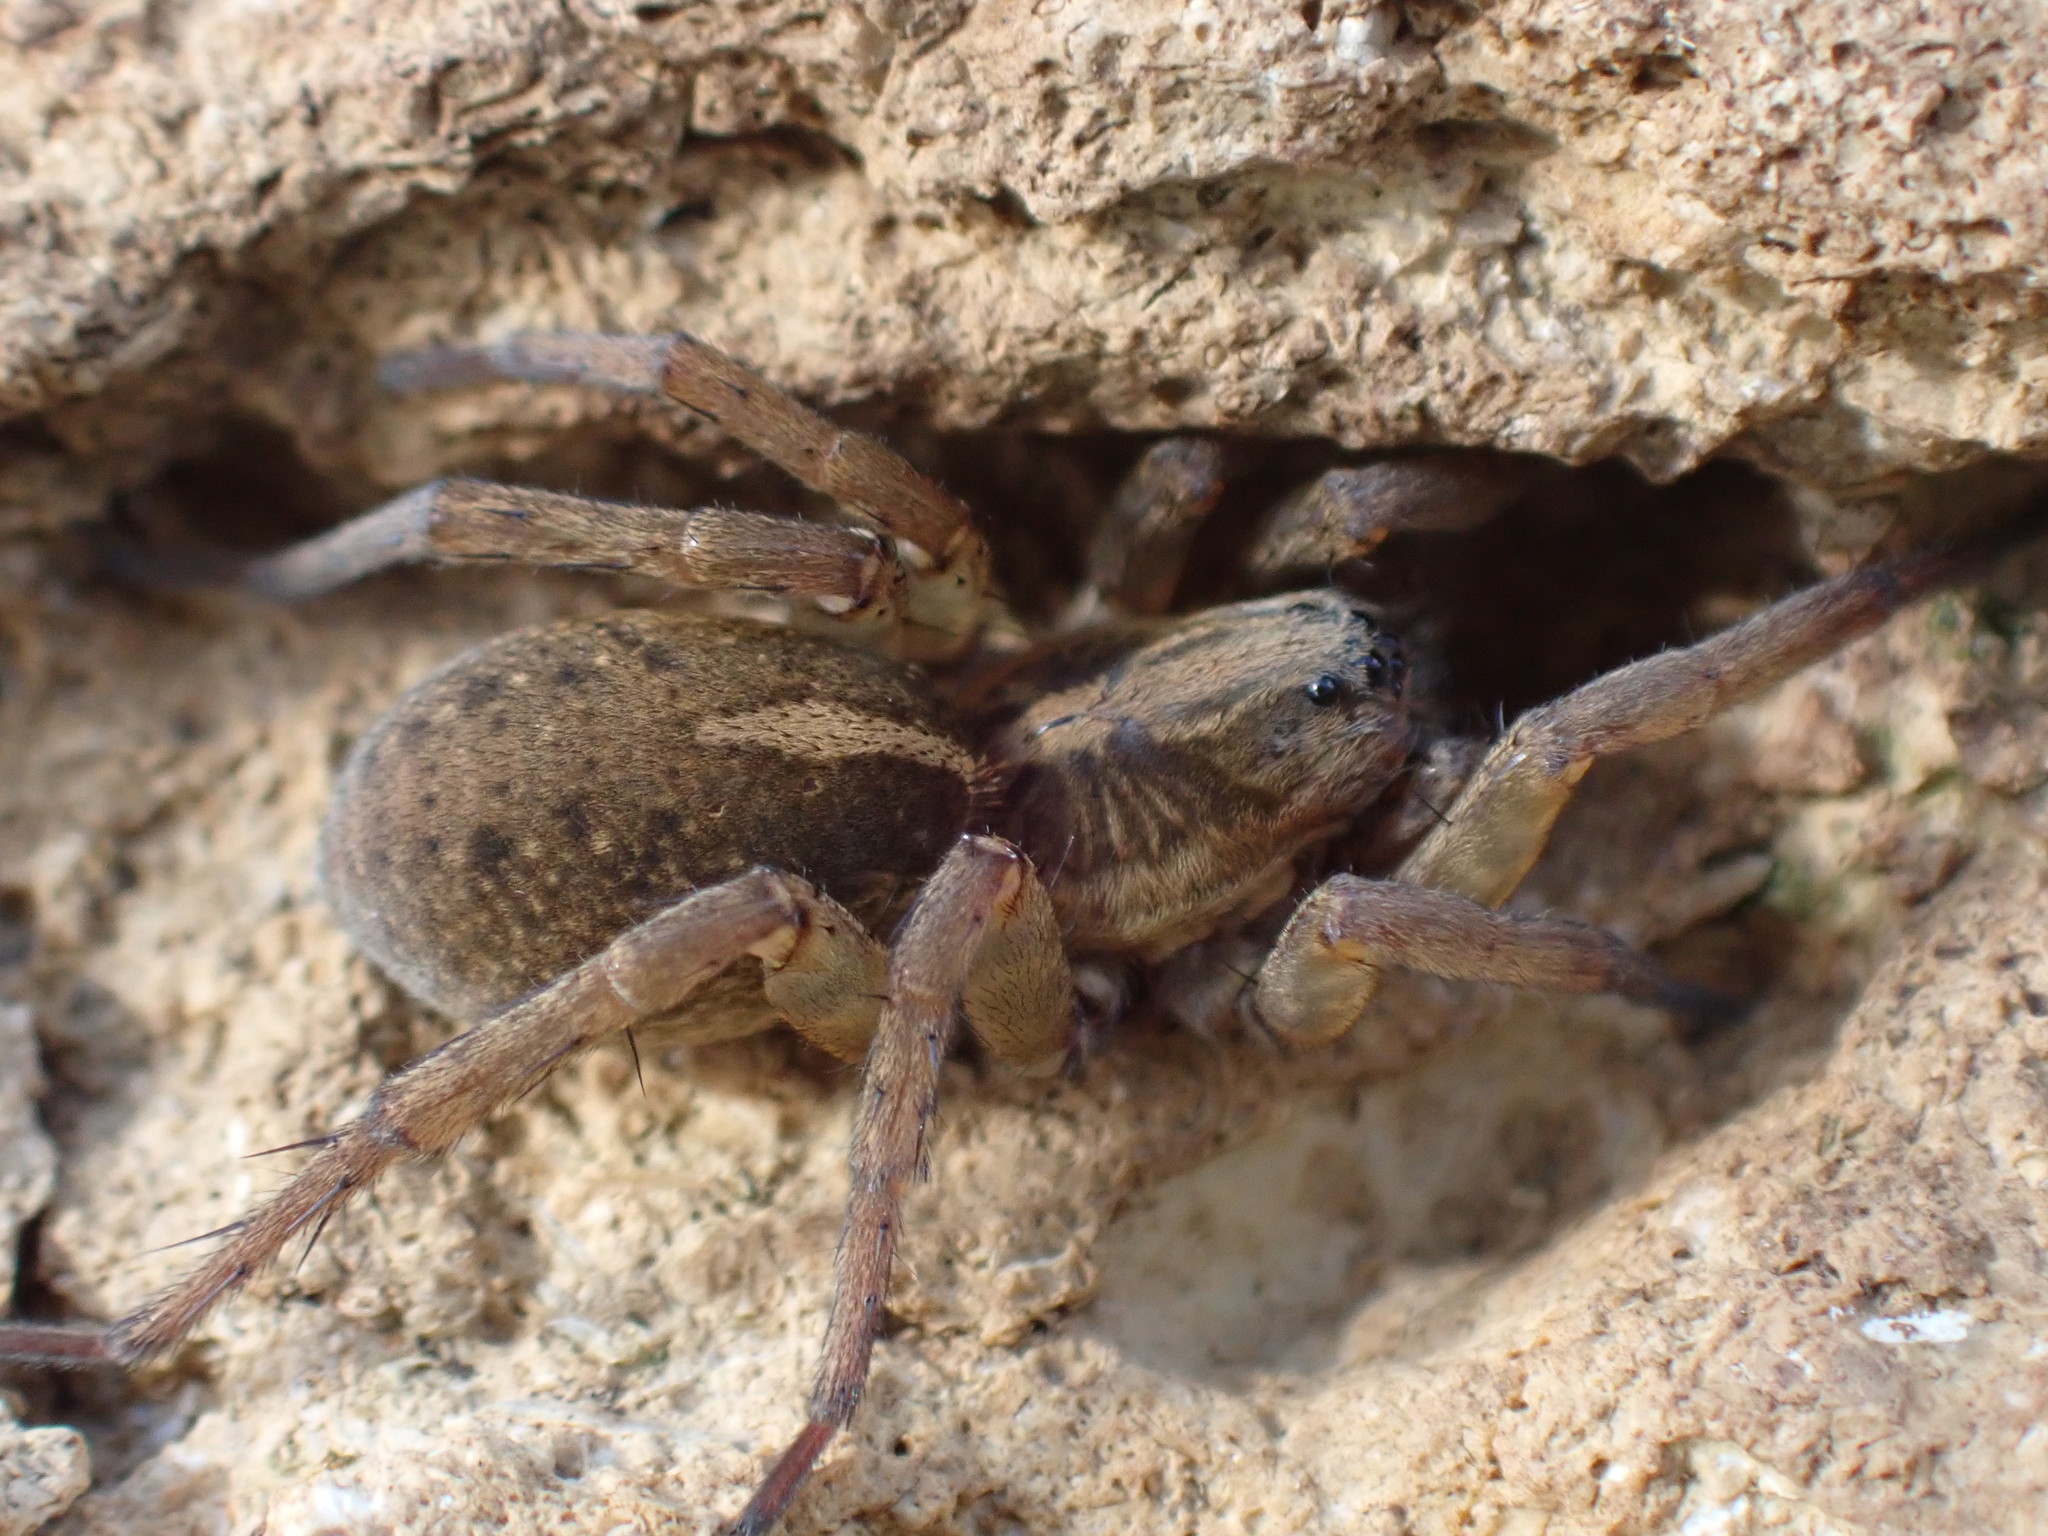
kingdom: Animalia
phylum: Arthropoda
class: Arachnida
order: Araneae
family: Lycosidae
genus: Trochosa
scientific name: Trochosa ruricola
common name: Spider
